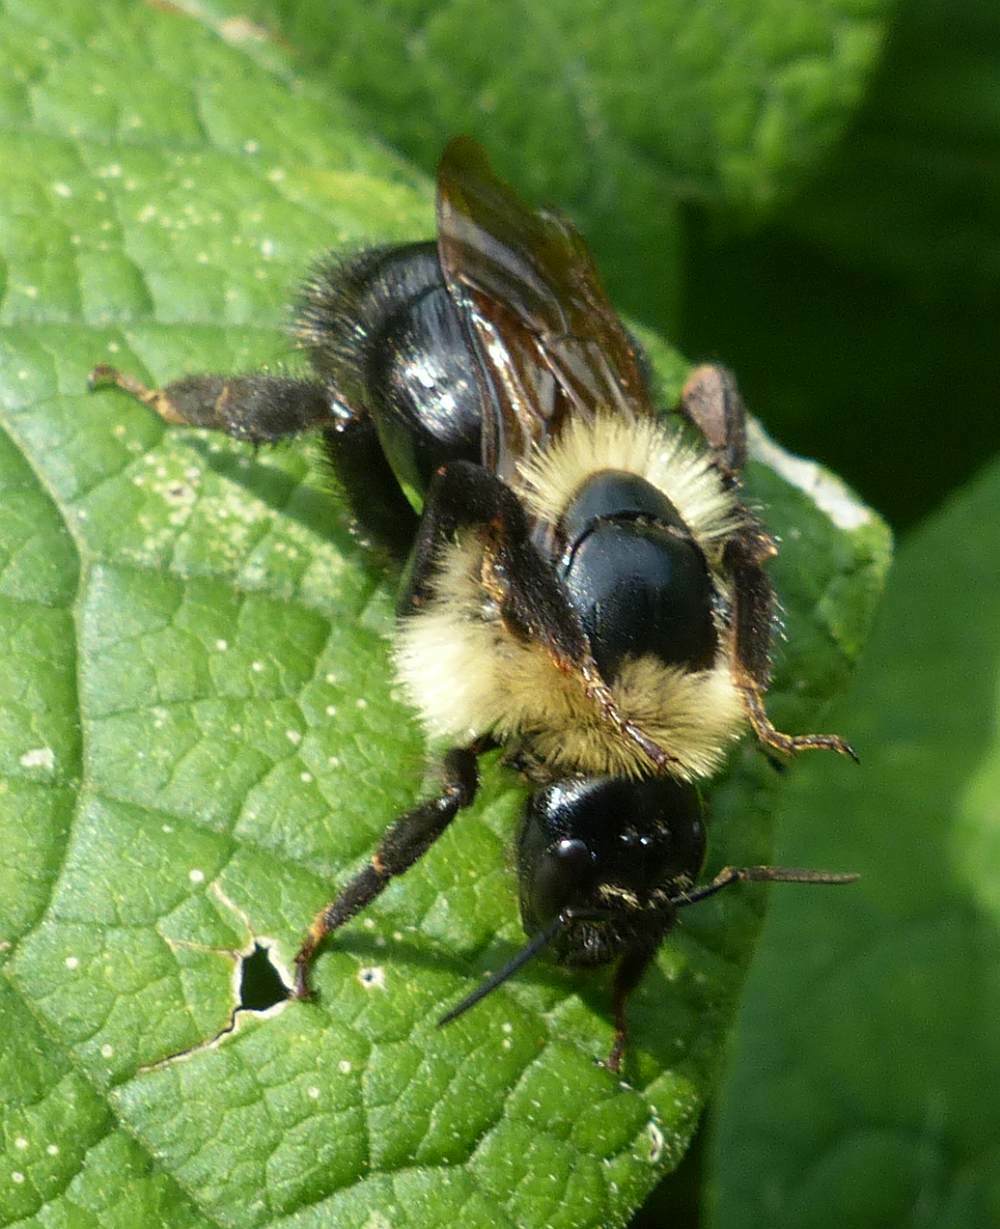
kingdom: Animalia
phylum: Arthropoda
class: Insecta
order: Hymenoptera
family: Apidae
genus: Bombus
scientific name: Bombus citrinus
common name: Lemon cuckoo bumble bee
